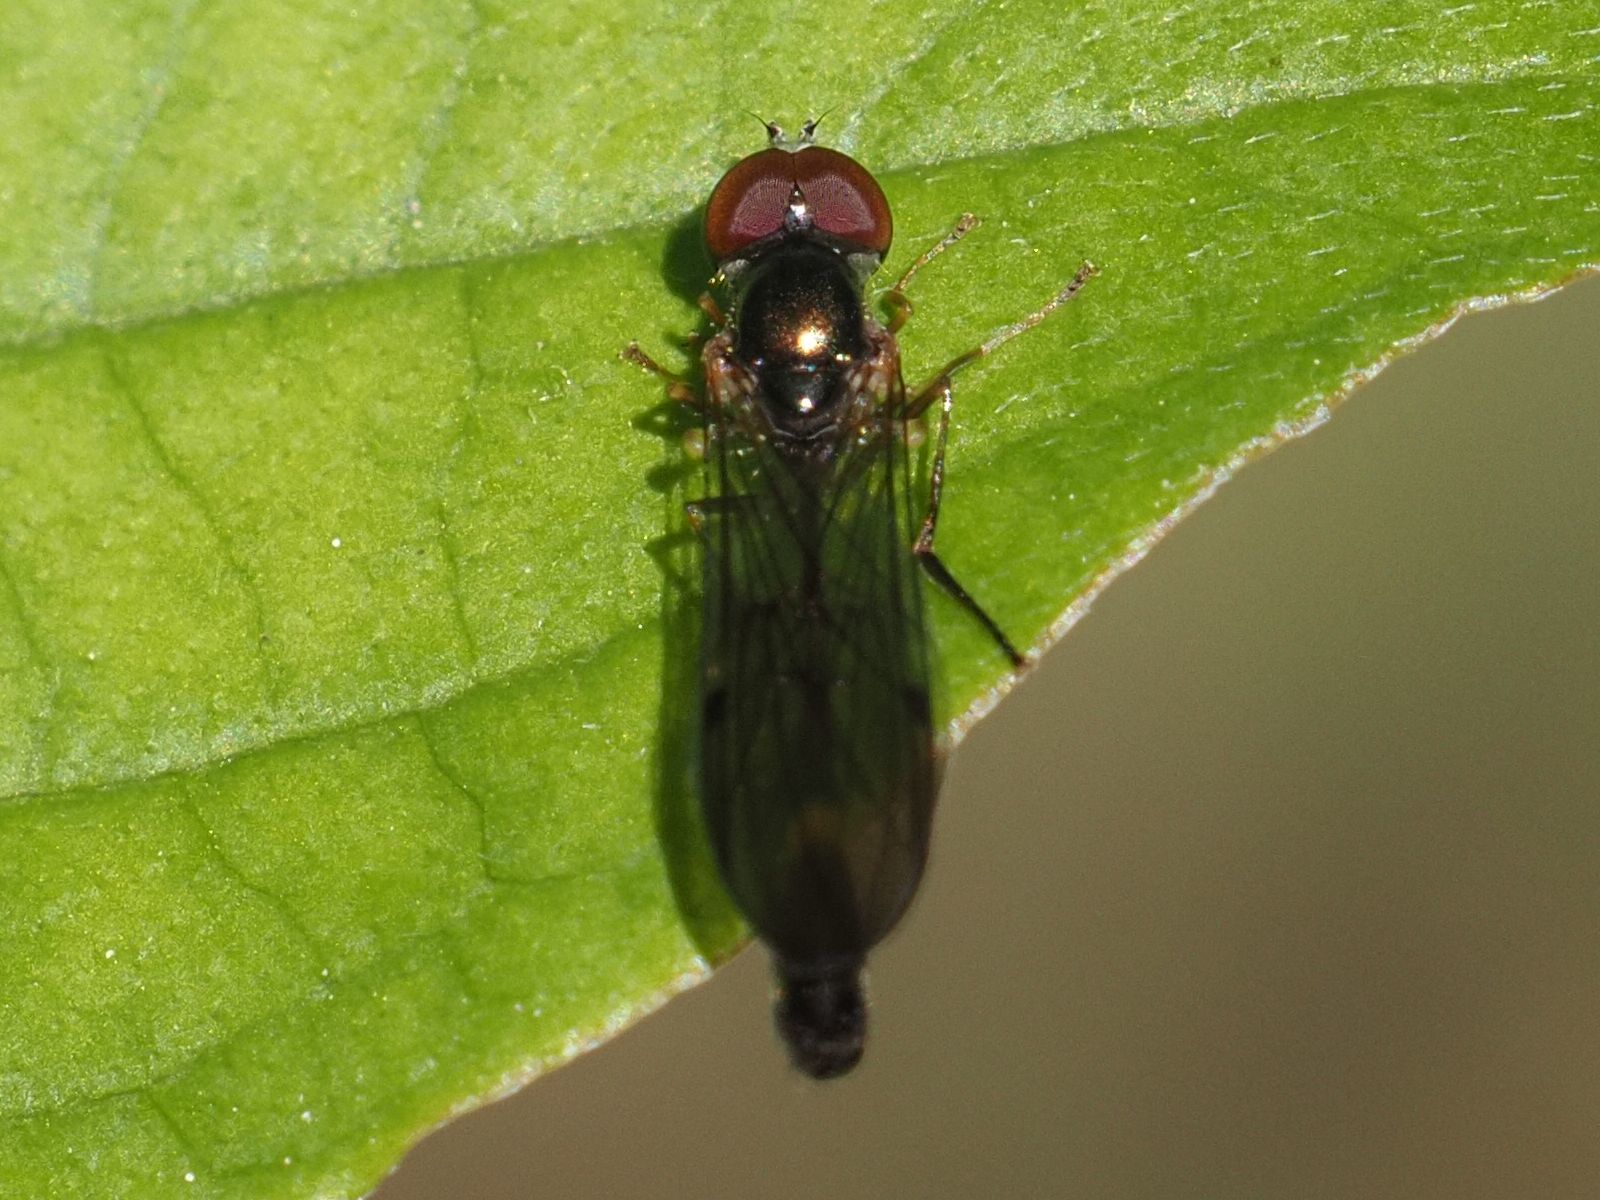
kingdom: Animalia
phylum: Arthropoda
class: Insecta
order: Diptera
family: Syrphidae
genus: Baccha
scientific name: Baccha elongata
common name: Common dainty
